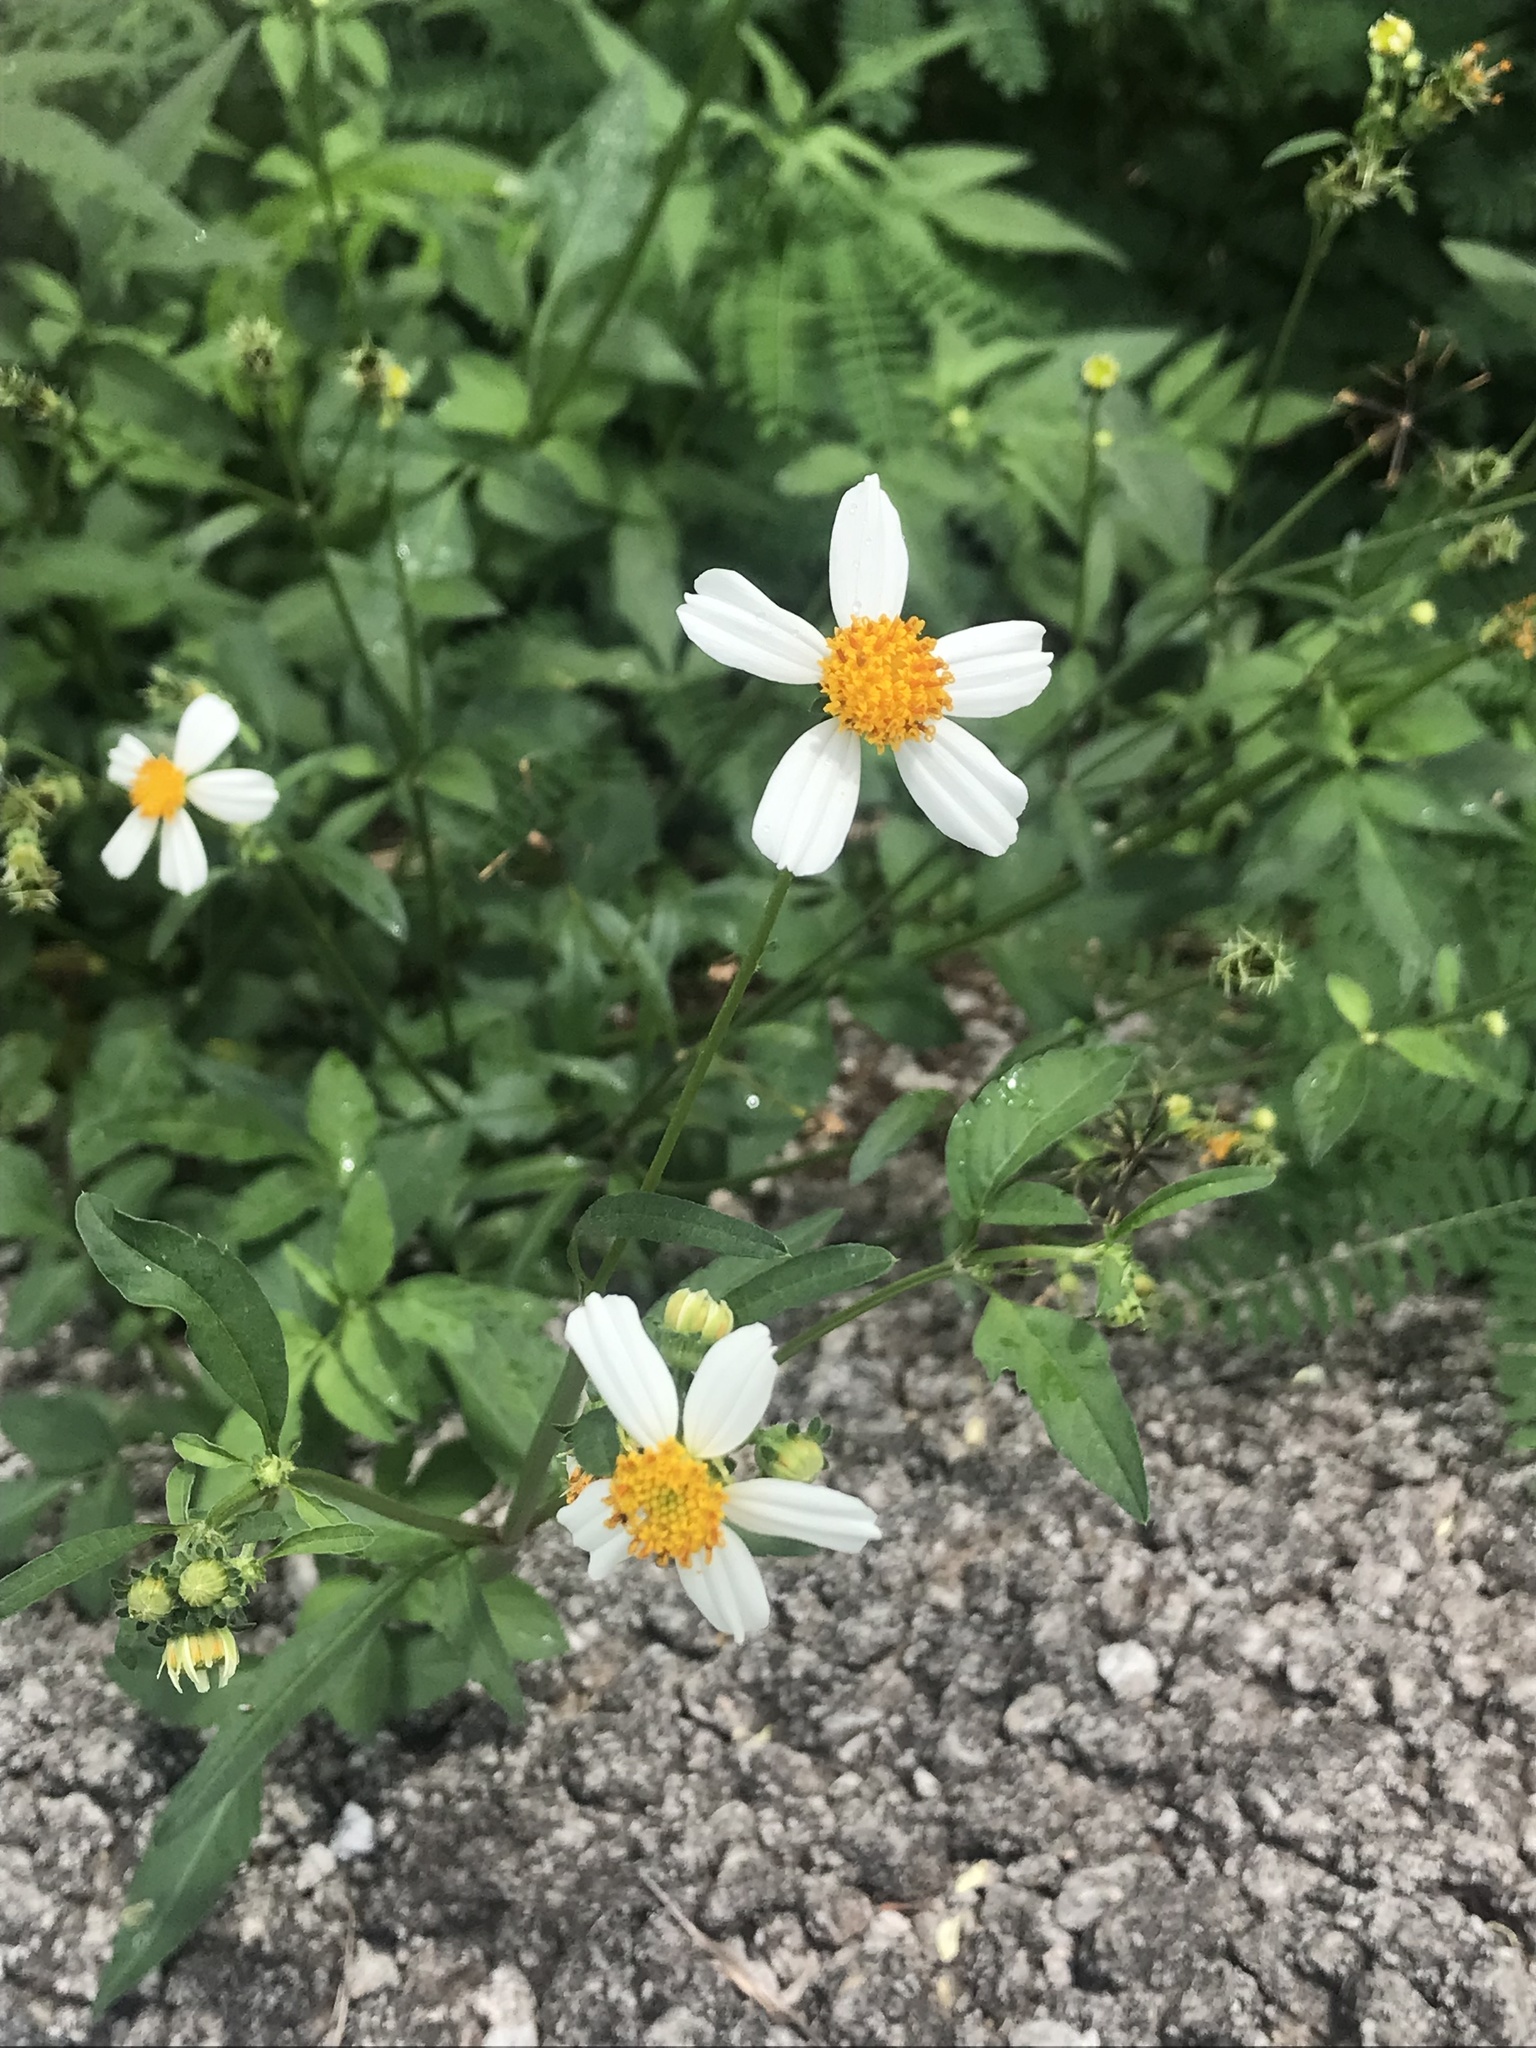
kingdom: Plantae
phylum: Tracheophyta
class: Magnoliopsida
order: Asterales
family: Asteraceae
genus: Bidens
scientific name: Bidens alba
